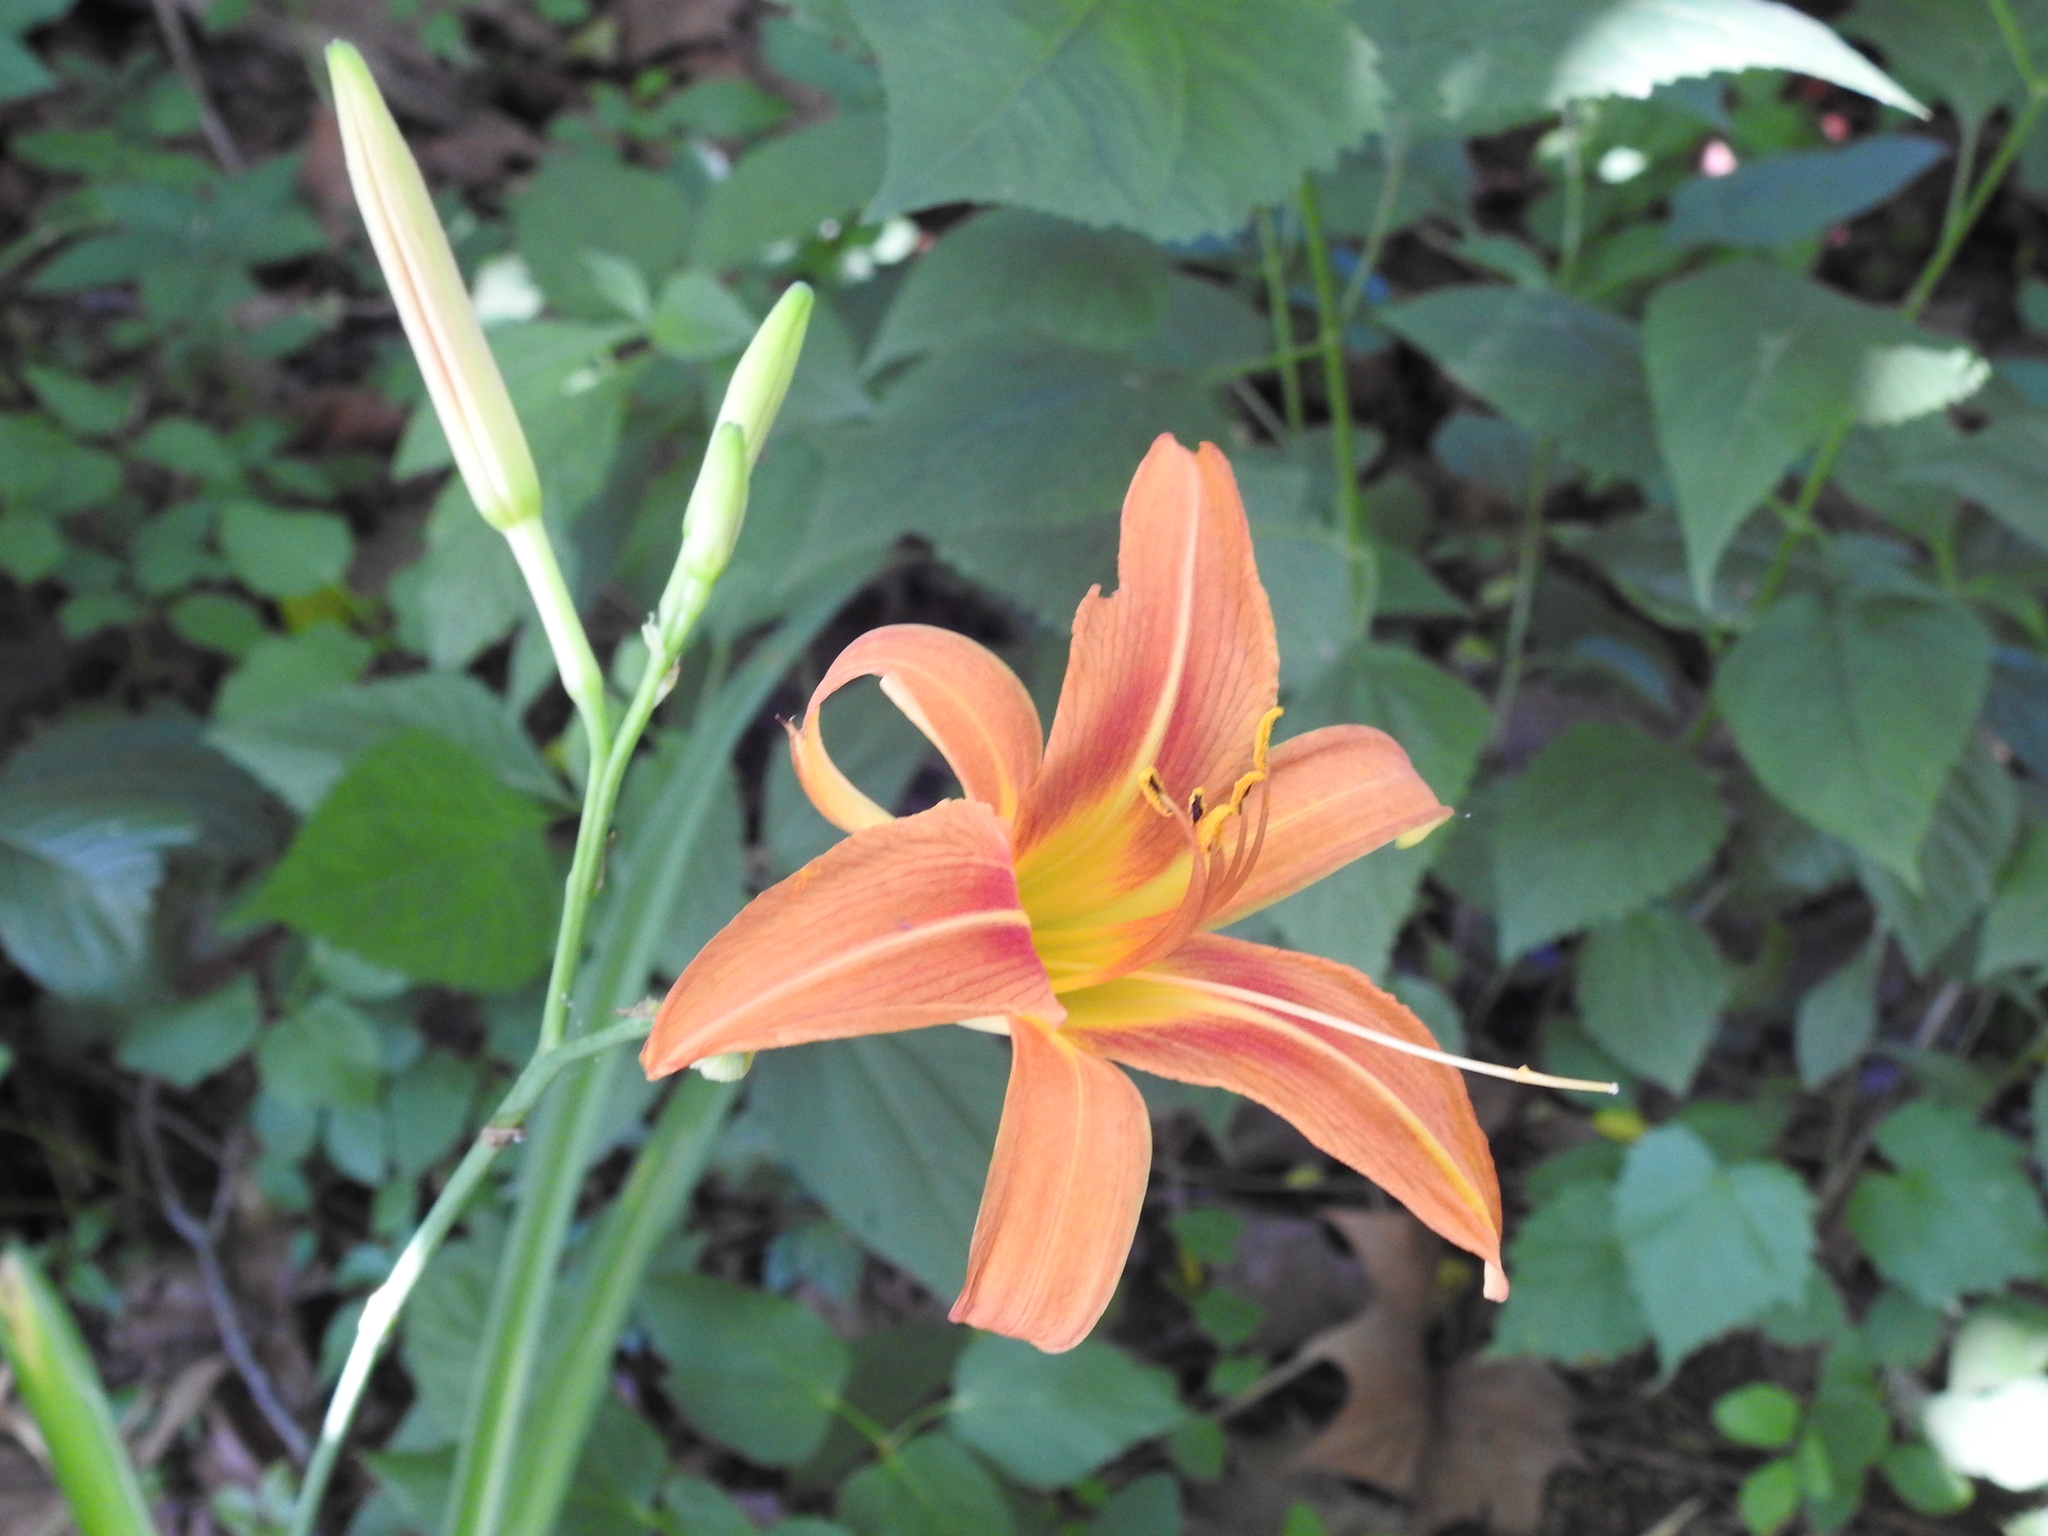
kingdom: Plantae
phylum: Tracheophyta
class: Liliopsida
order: Asparagales
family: Asphodelaceae
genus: Hemerocallis
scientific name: Hemerocallis fulva
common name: Orange day-lily
